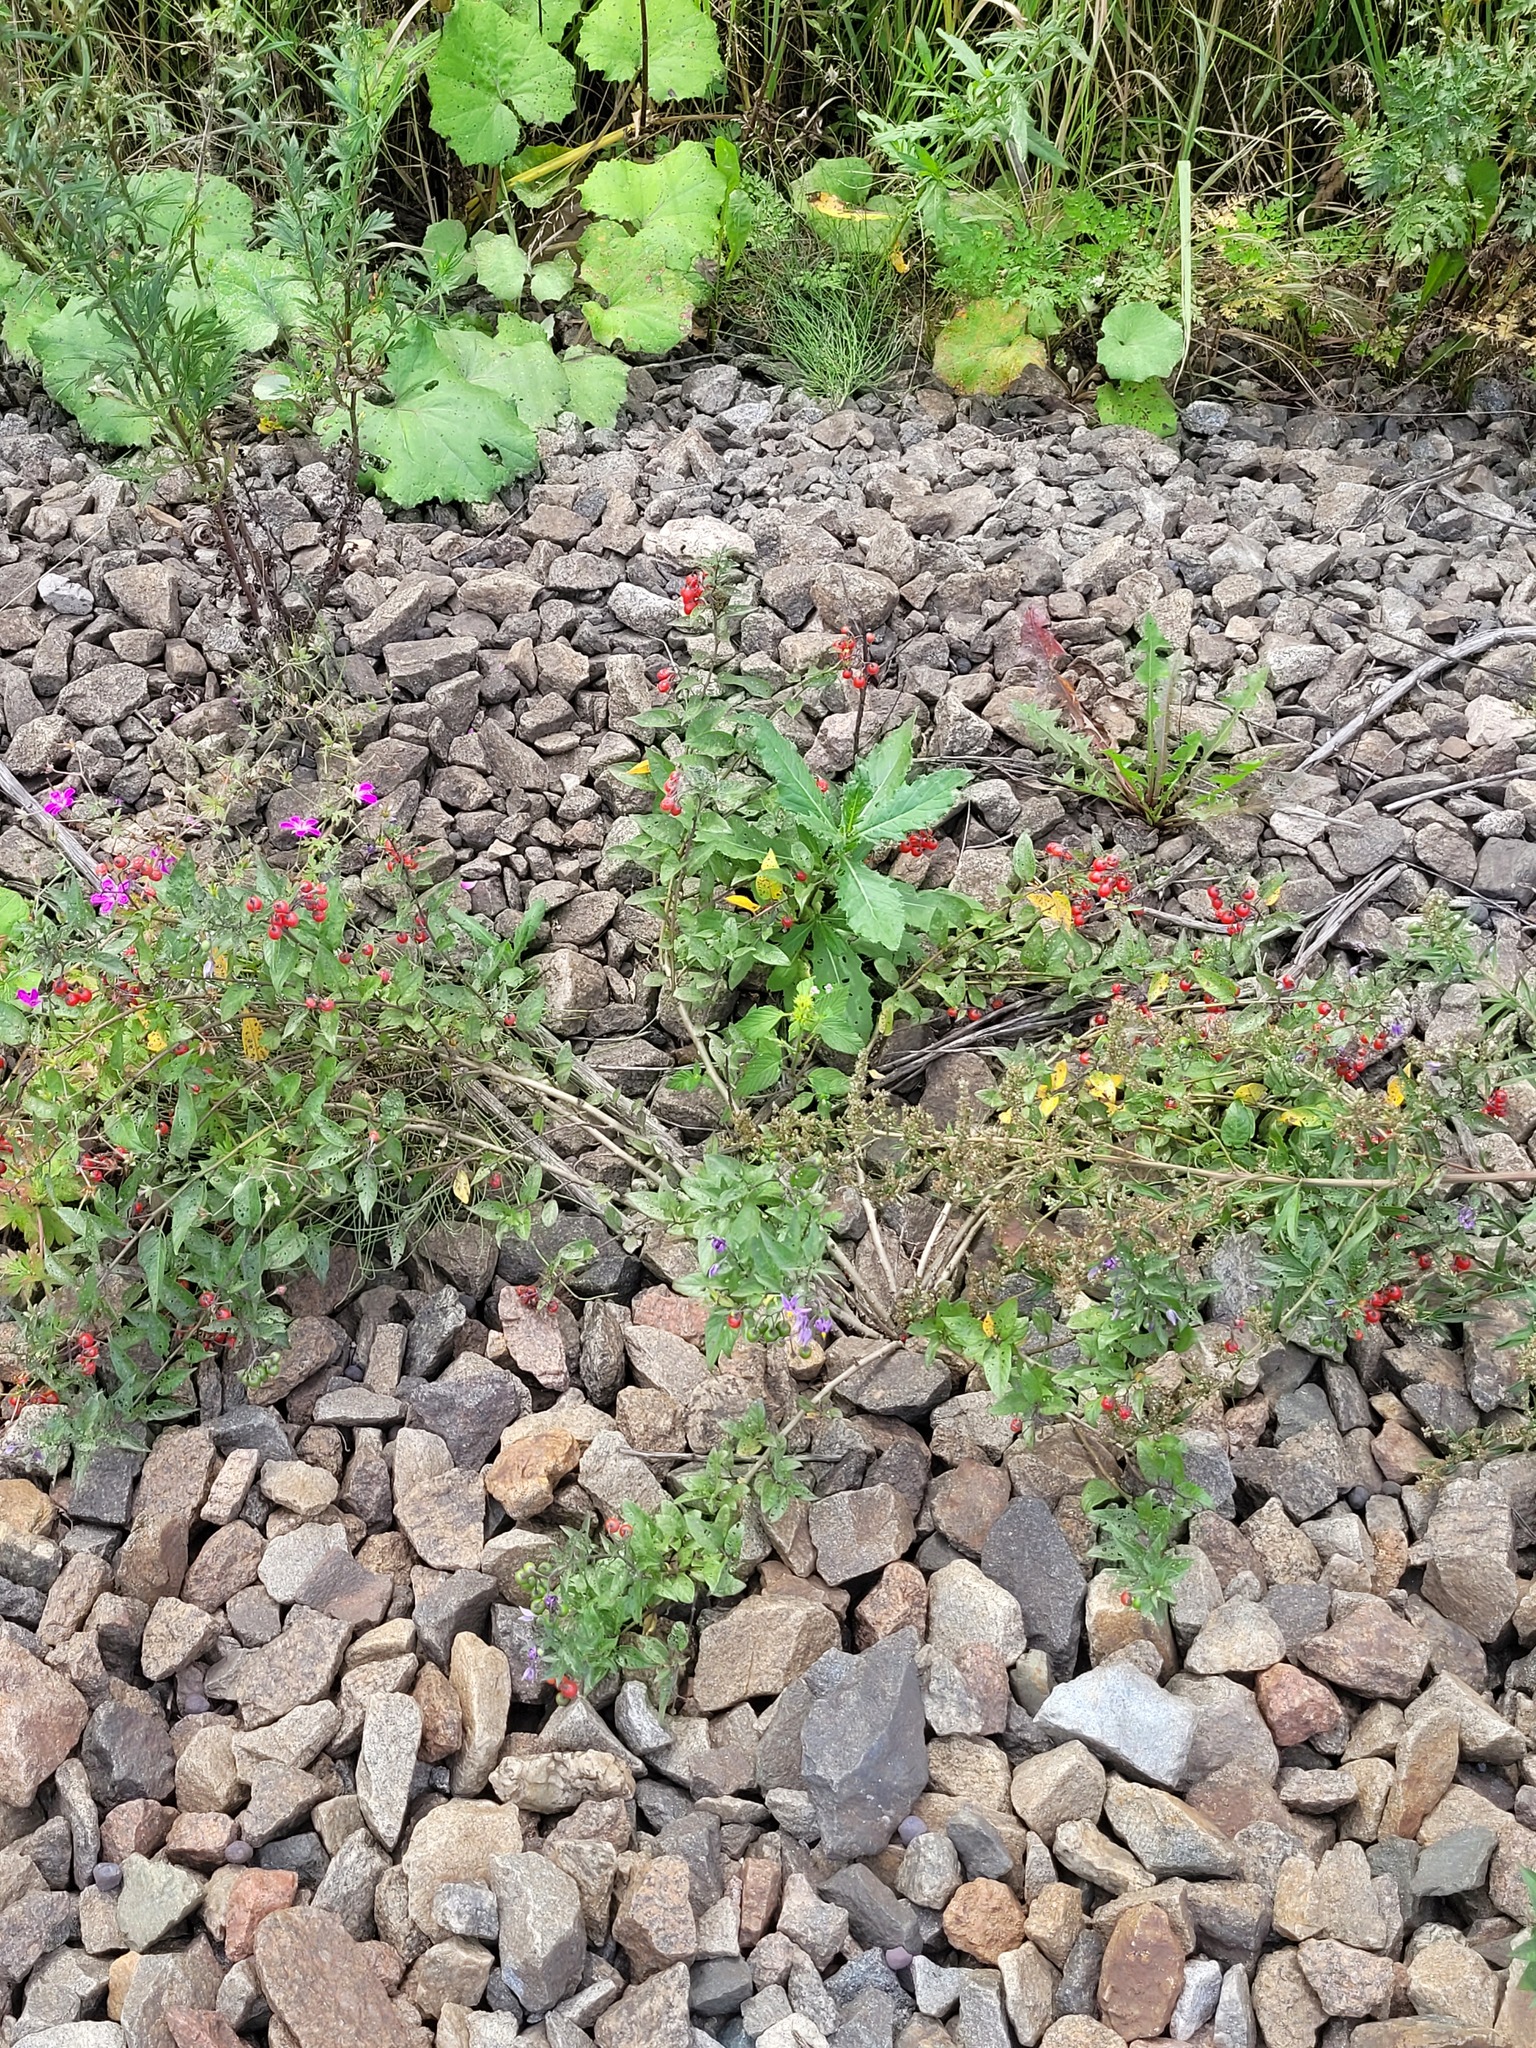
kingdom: Plantae
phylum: Tracheophyta
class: Magnoliopsida
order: Solanales
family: Solanaceae
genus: Solanum
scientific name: Solanum dulcamara
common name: Climbing nightshade
